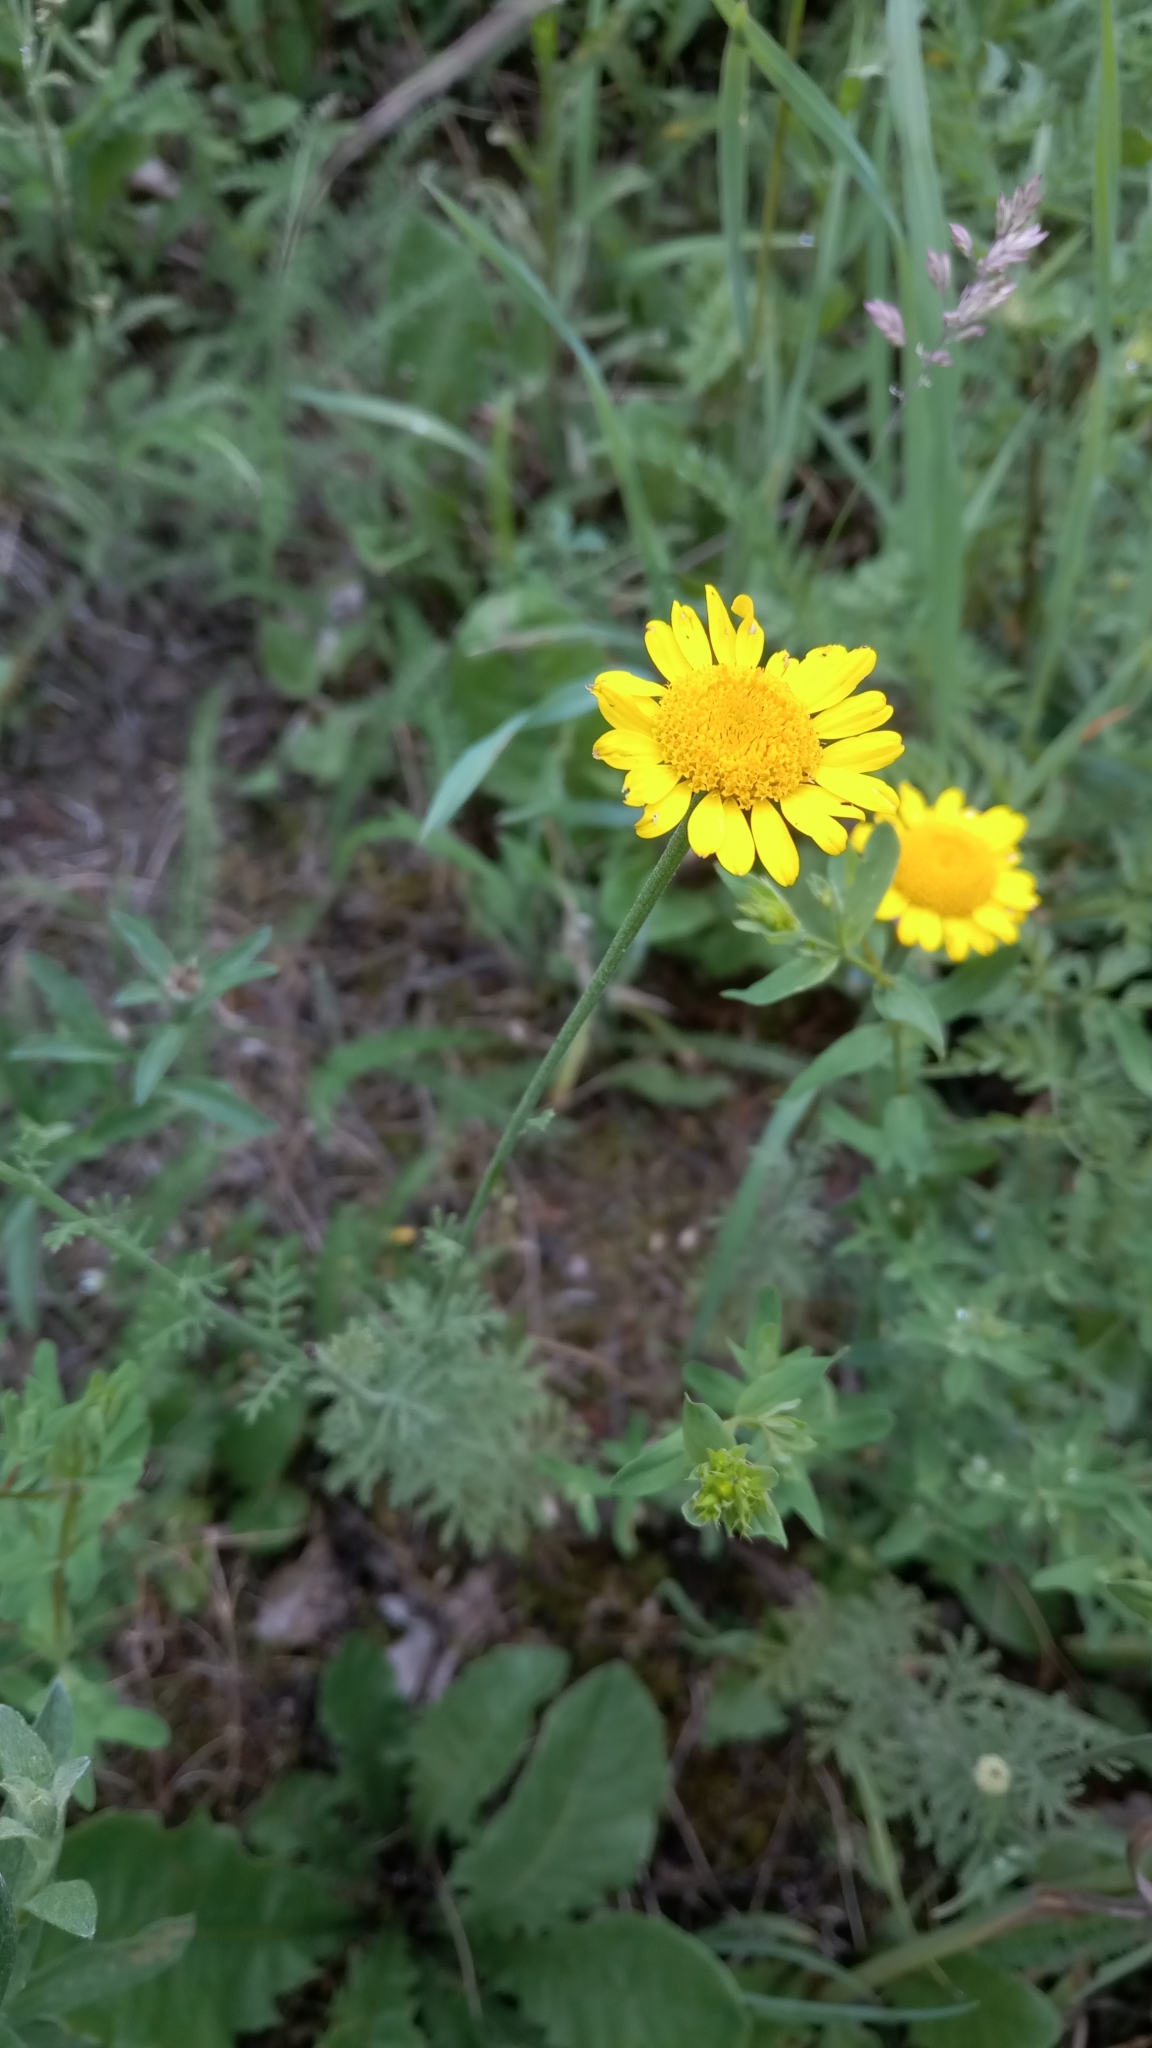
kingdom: Plantae
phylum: Tracheophyta
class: Magnoliopsida
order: Asterales
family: Asteraceae
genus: Cota
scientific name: Cota tinctoria
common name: Golden chamomile
